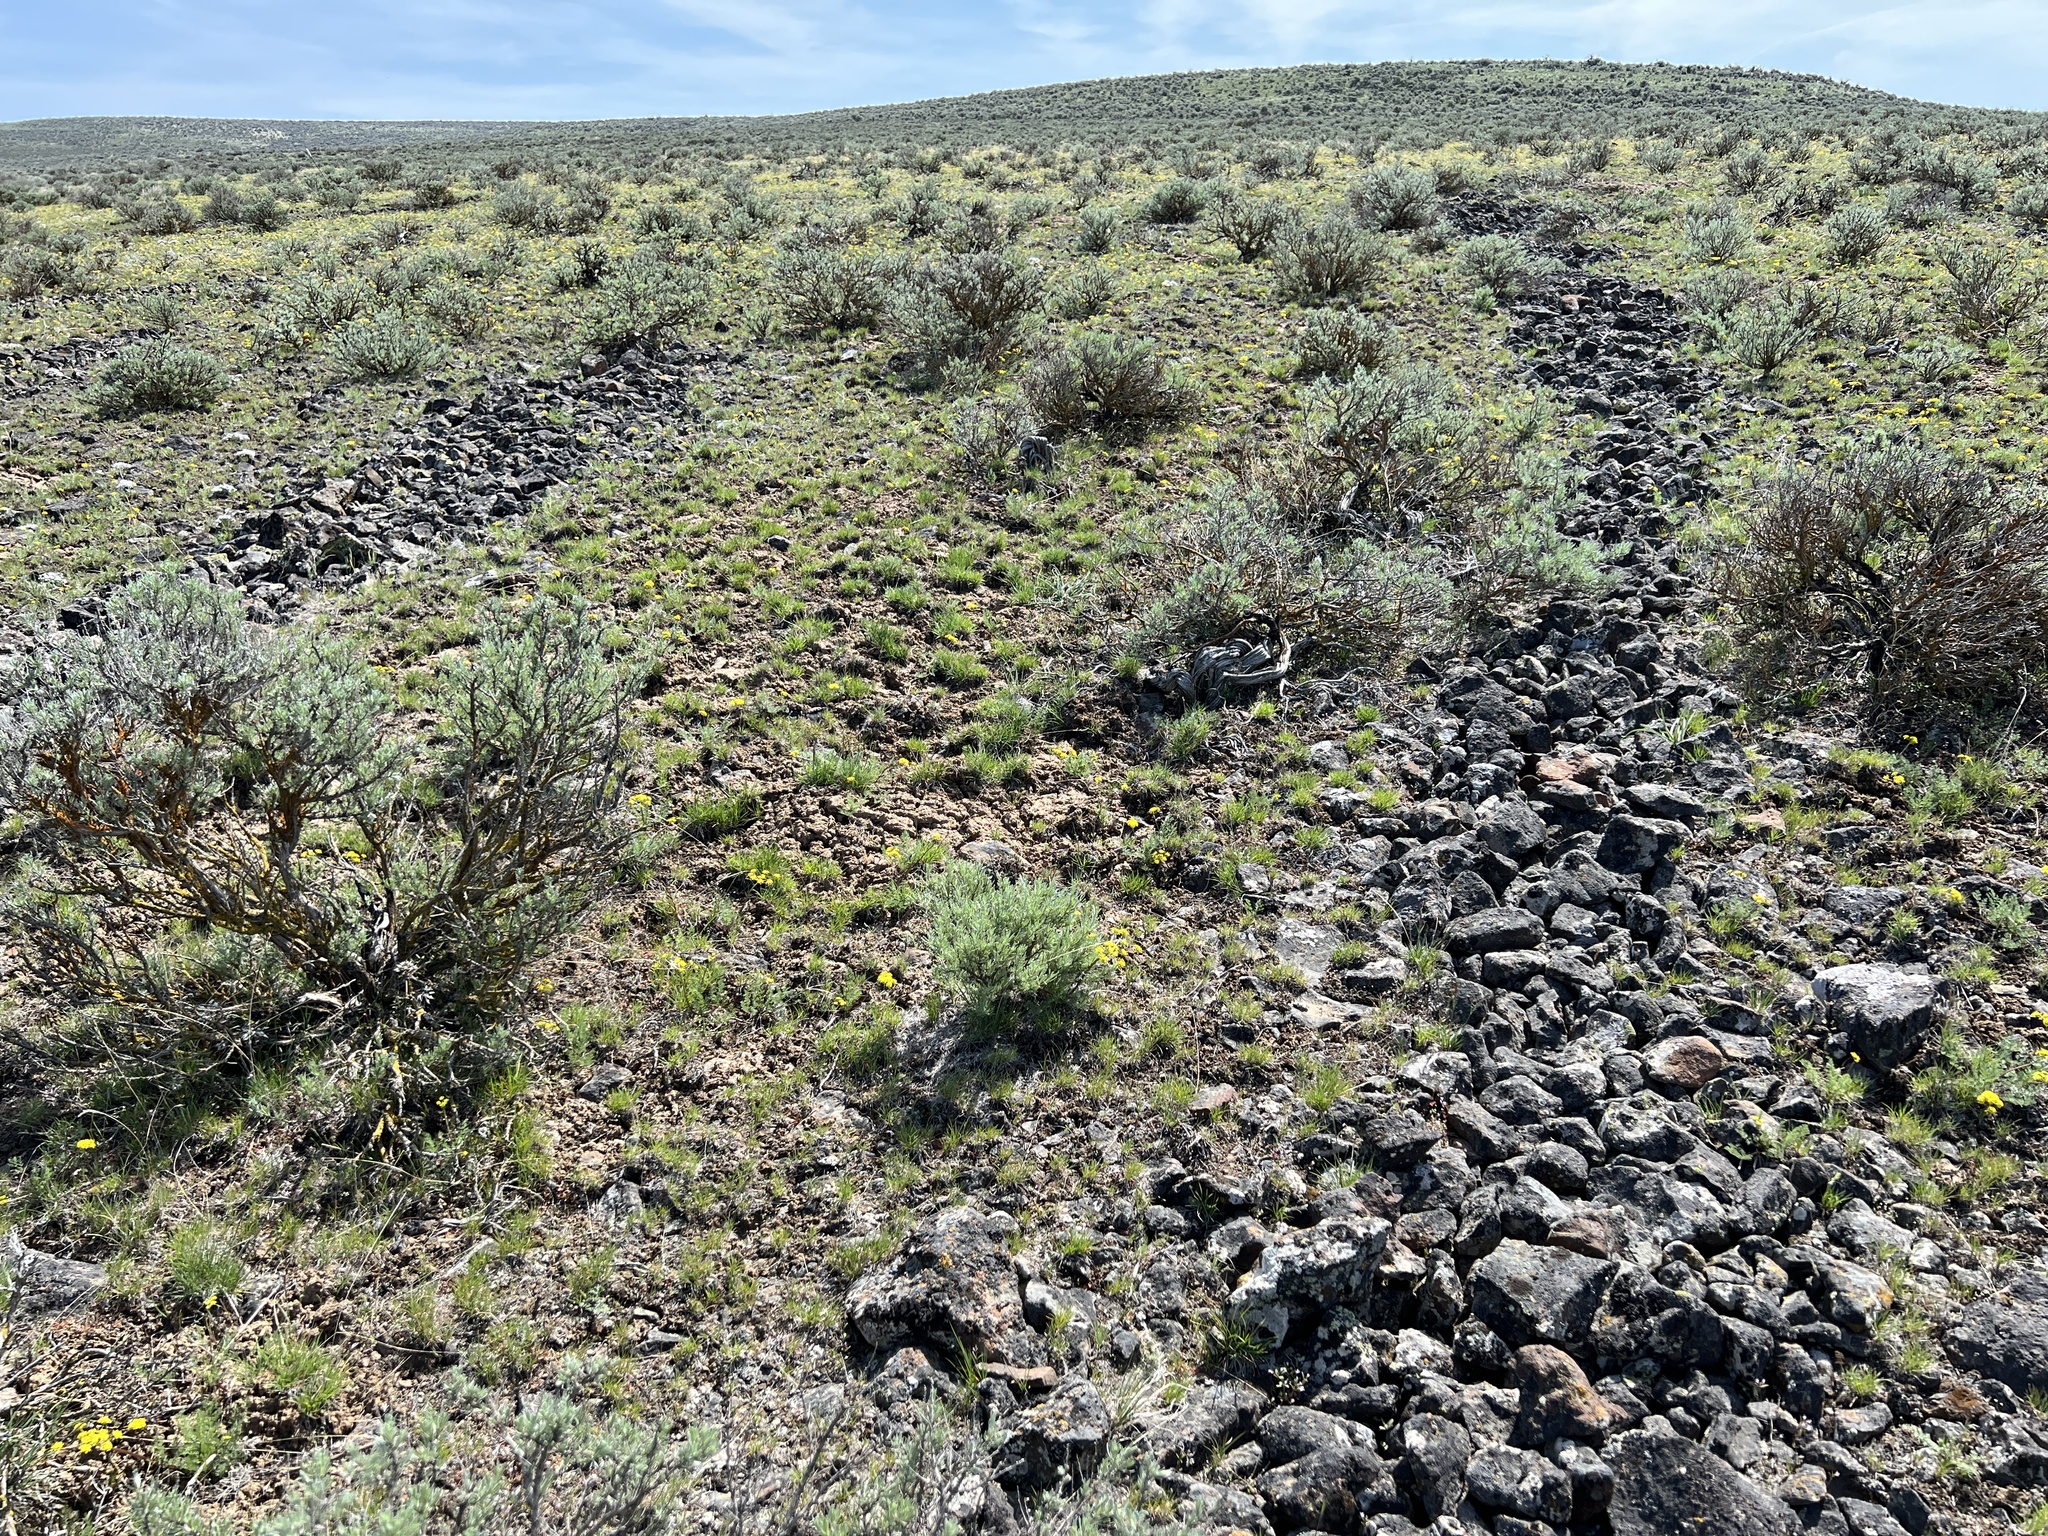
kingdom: Plantae
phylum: Tracheophyta
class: Magnoliopsida
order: Asterales
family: Asteraceae
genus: Artemisia
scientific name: Artemisia rigida
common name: Scabland sagebrush
